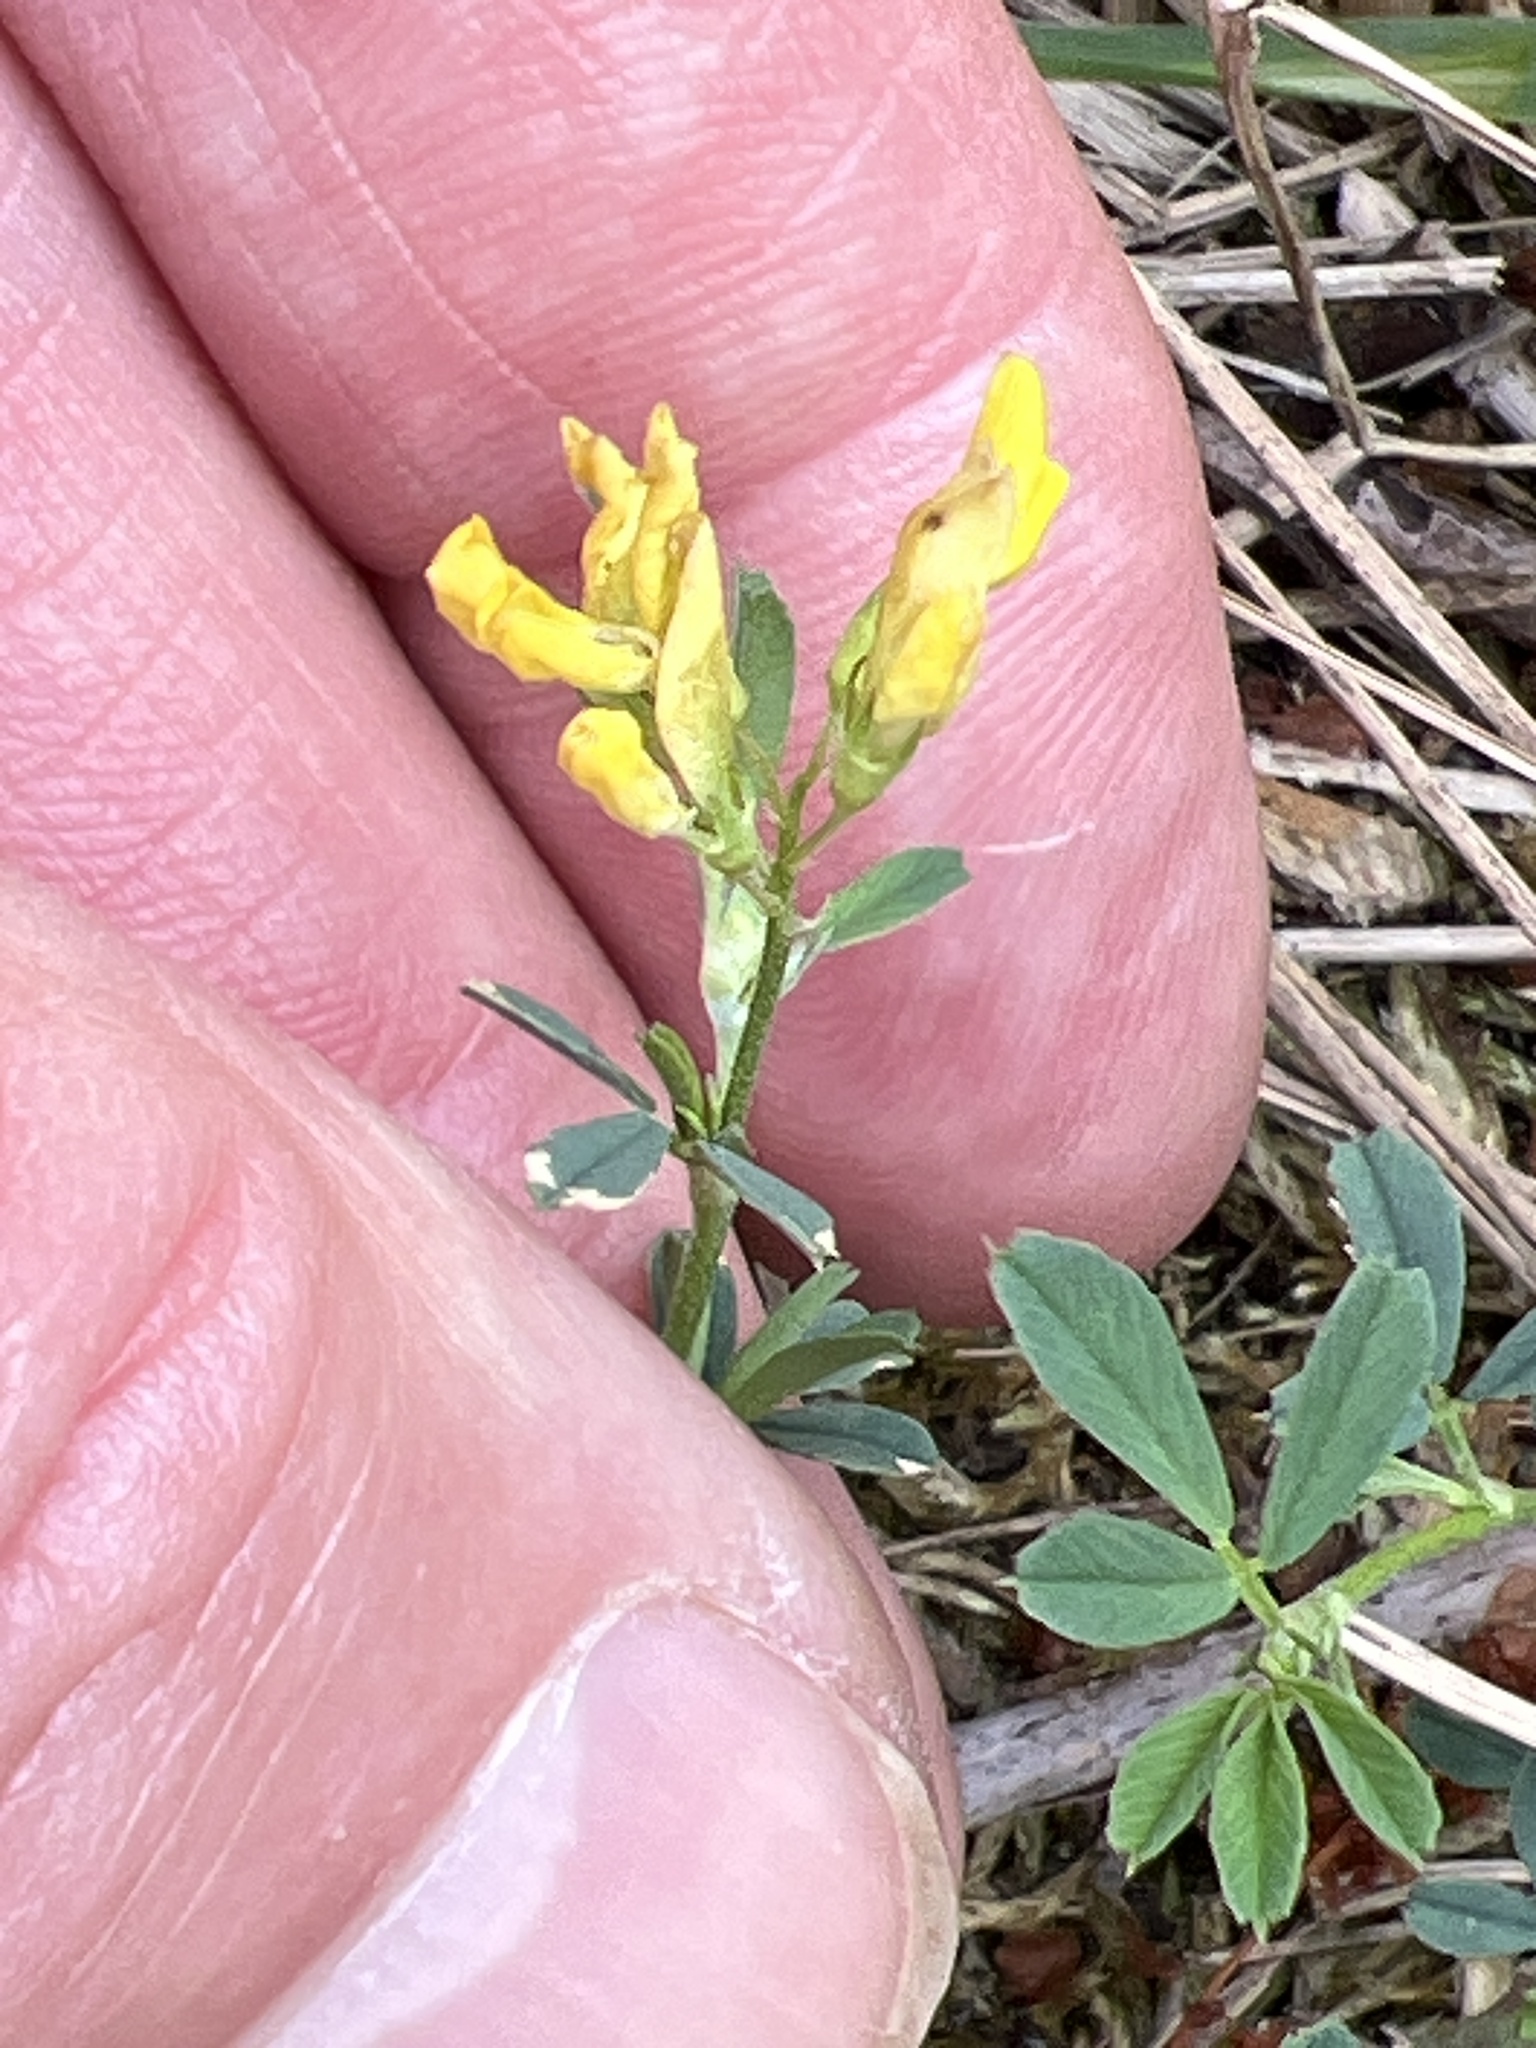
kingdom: Plantae
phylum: Tracheophyta
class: Magnoliopsida
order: Fabales
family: Fabaceae
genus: Melilotus
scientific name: Melilotus officinalis
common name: Sweetclover
